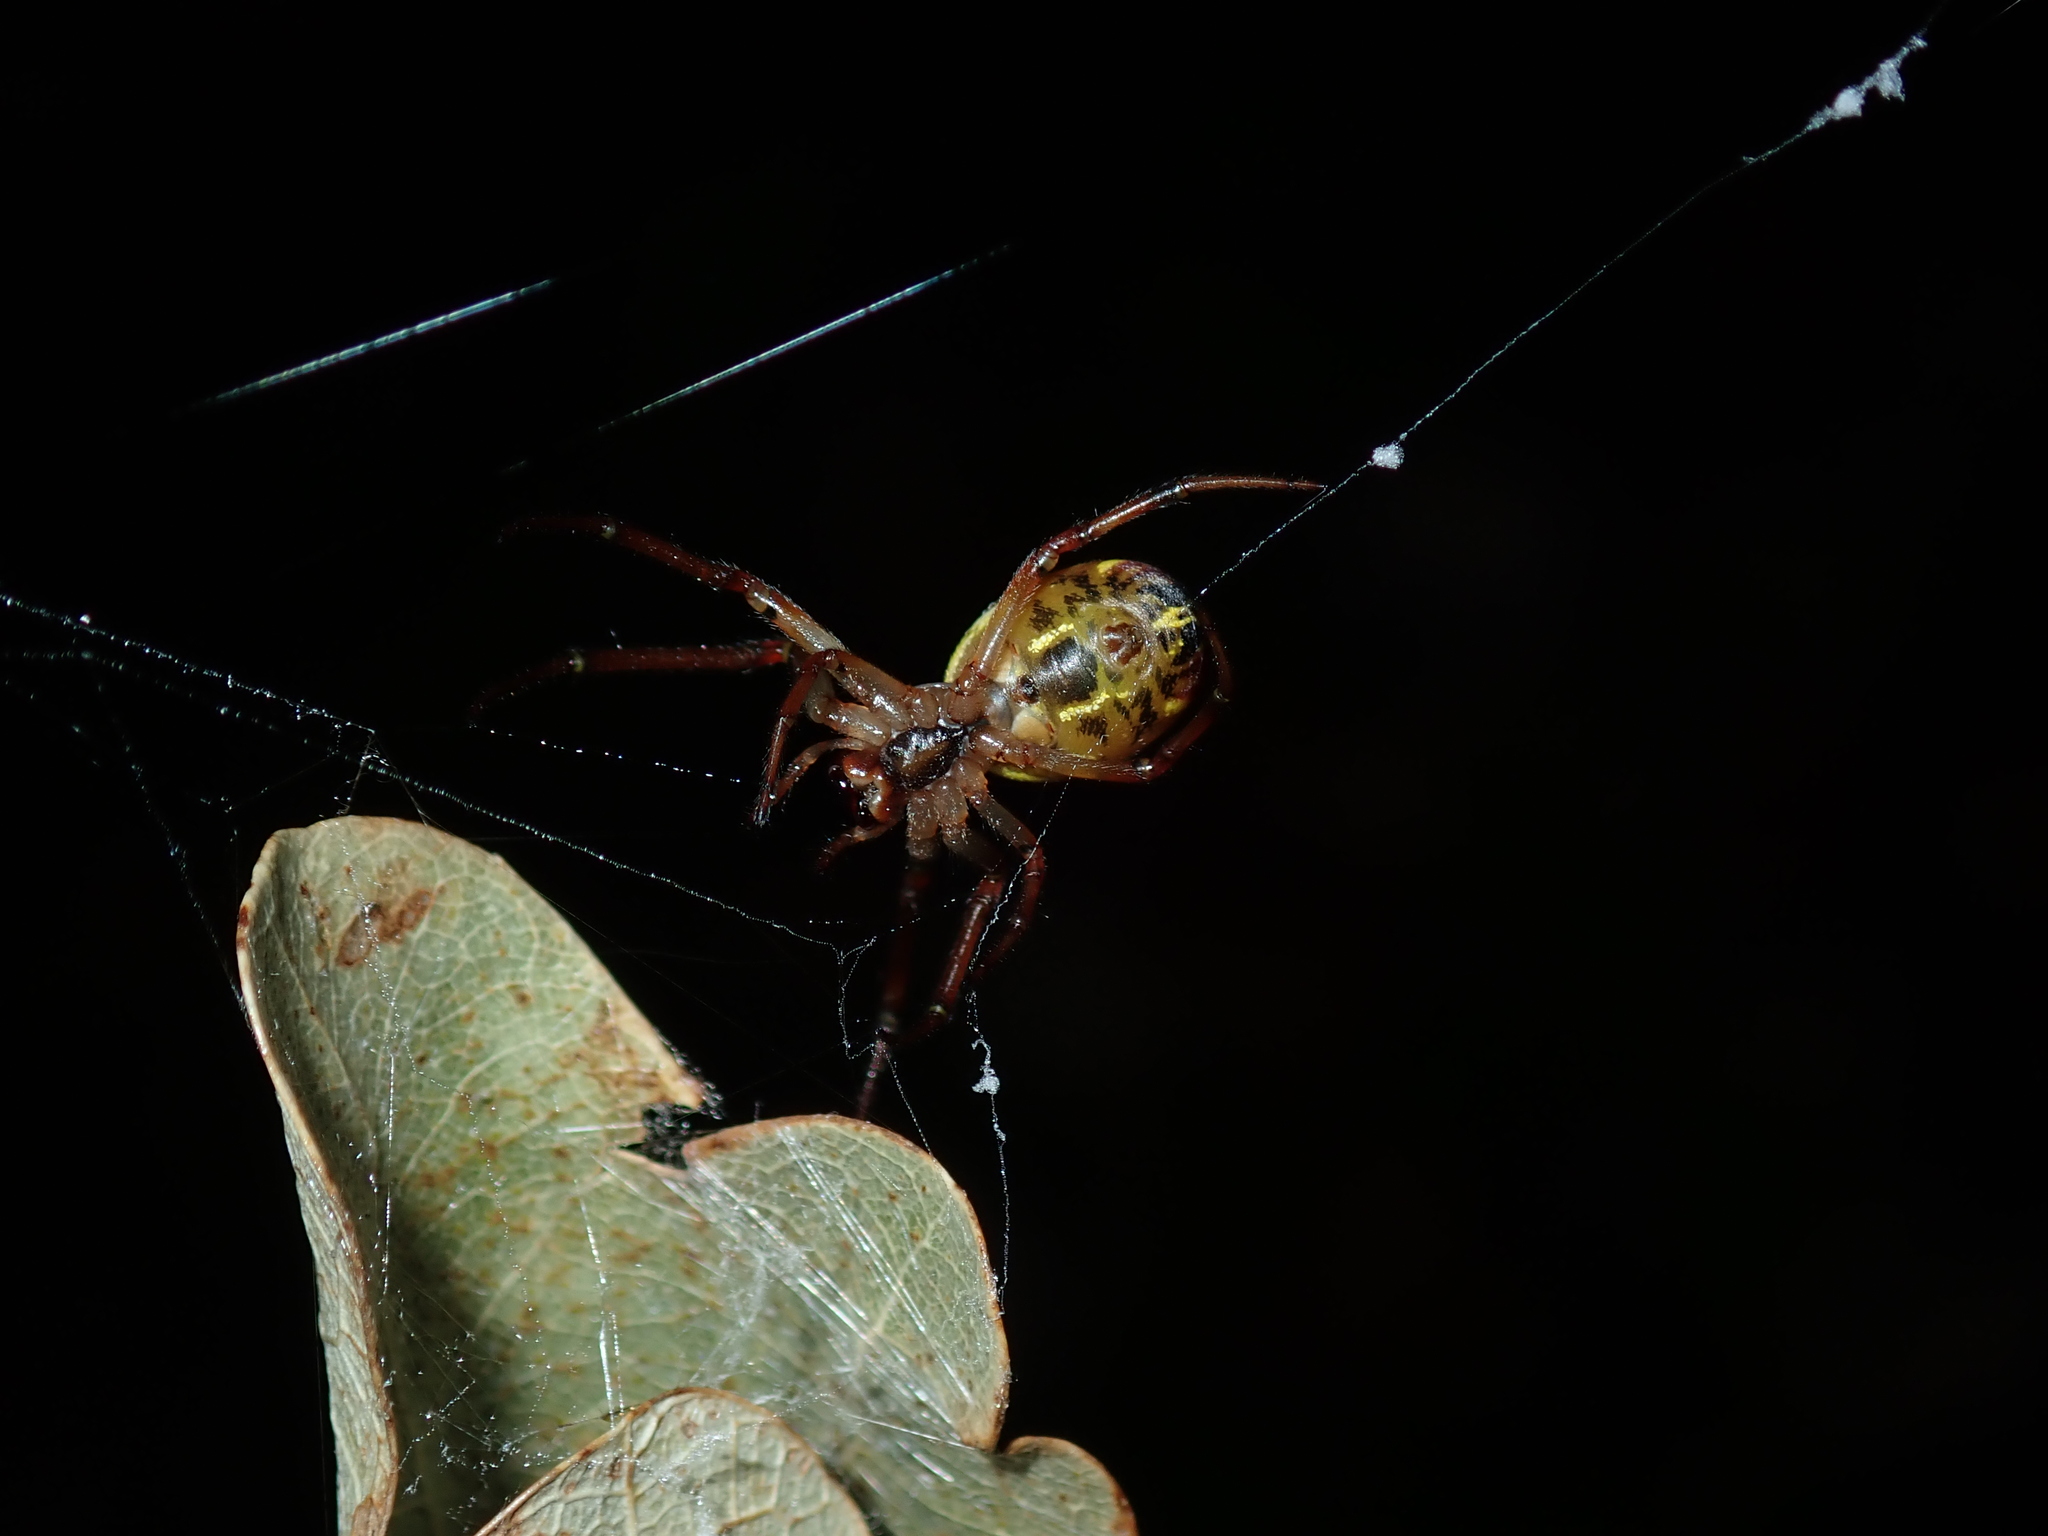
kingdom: Animalia
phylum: Arthropoda
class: Arachnida
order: Araneae
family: Araneidae
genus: Phonognatha
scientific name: Phonognatha graeffei
